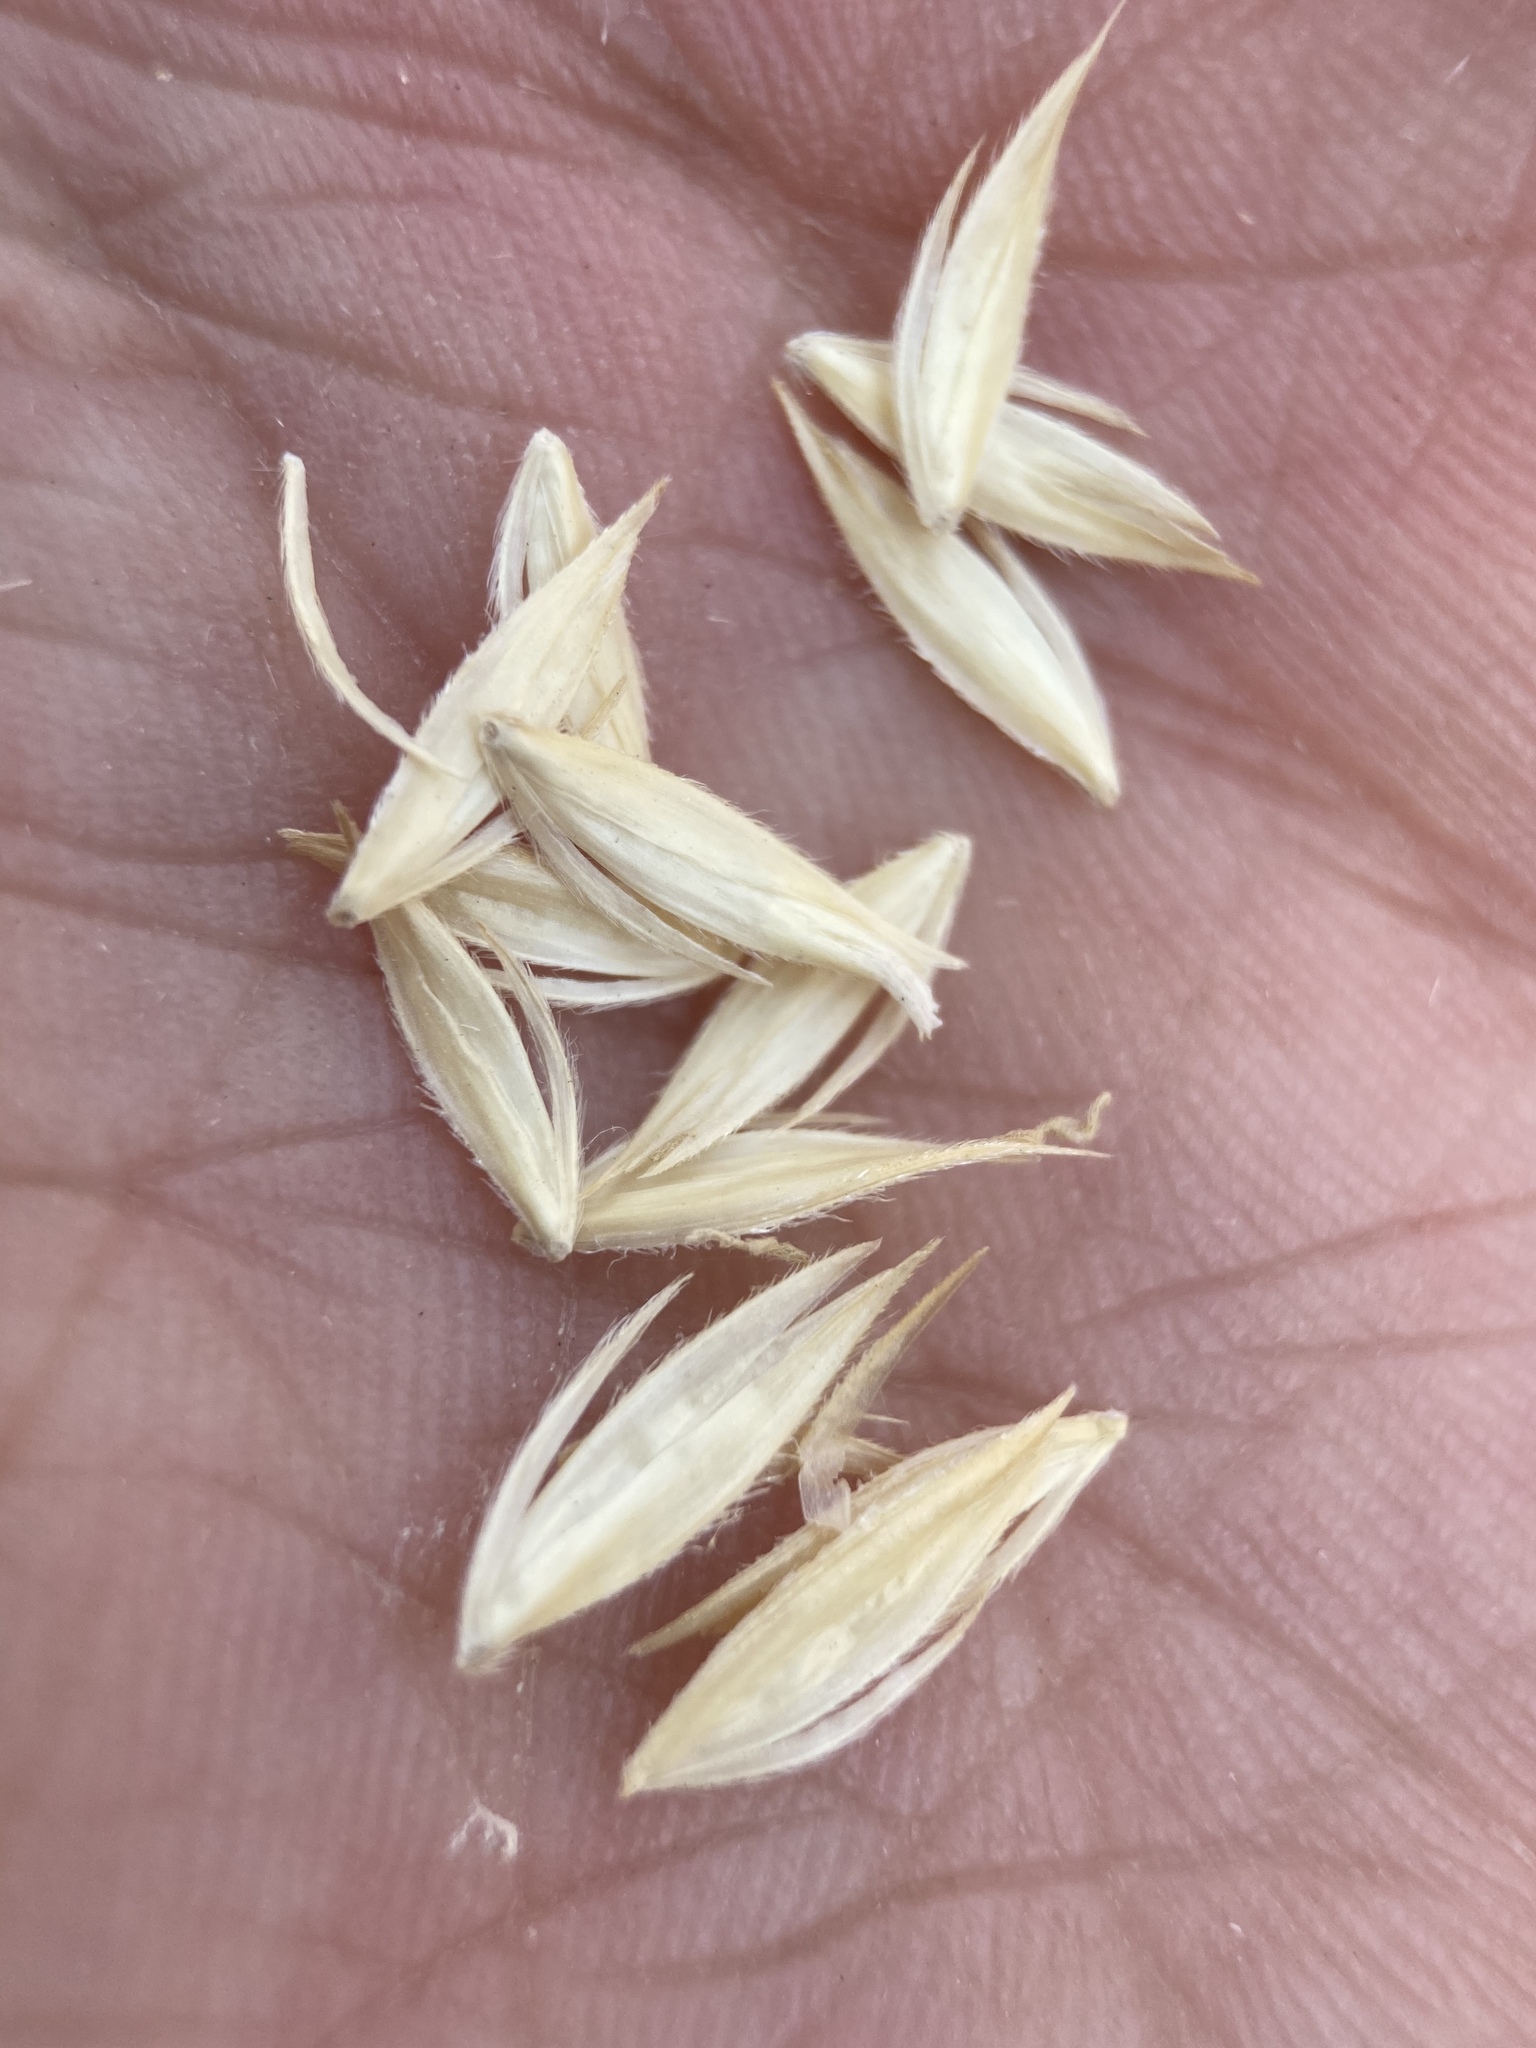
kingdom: Plantae
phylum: Tracheophyta
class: Liliopsida
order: Poales
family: Poaceae
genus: Sporobolus
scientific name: Sporobolus hookerianus
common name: Alkali cordgrass
